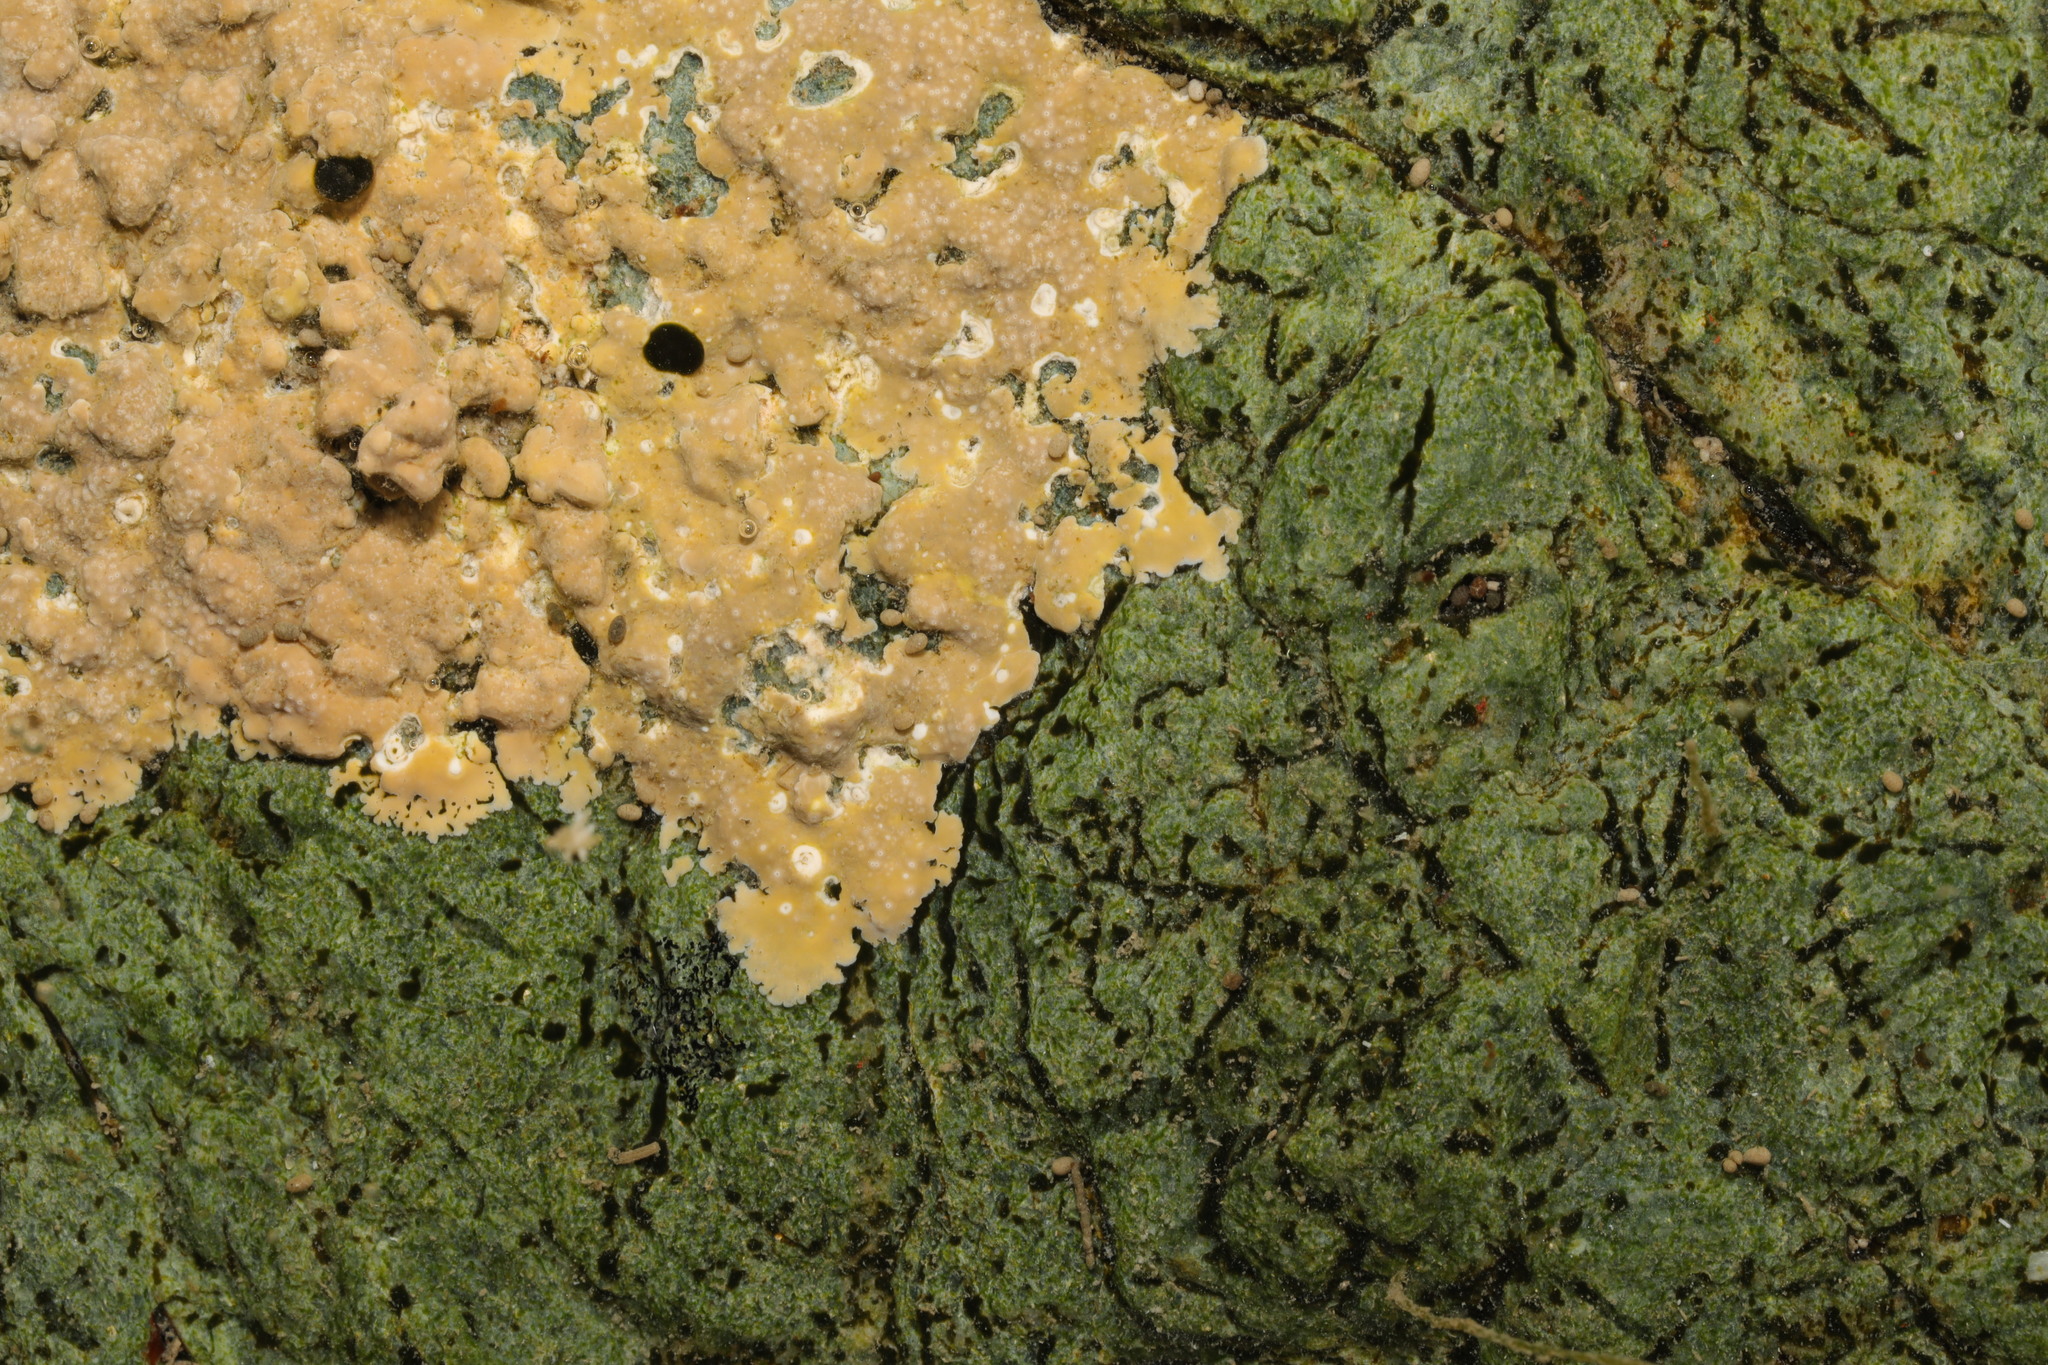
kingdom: Plantae
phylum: Rhodophyta
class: Florideophyceae
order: Corallinales
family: Hapalidiaceae
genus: Lithothamnion
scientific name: Lithothamnion
